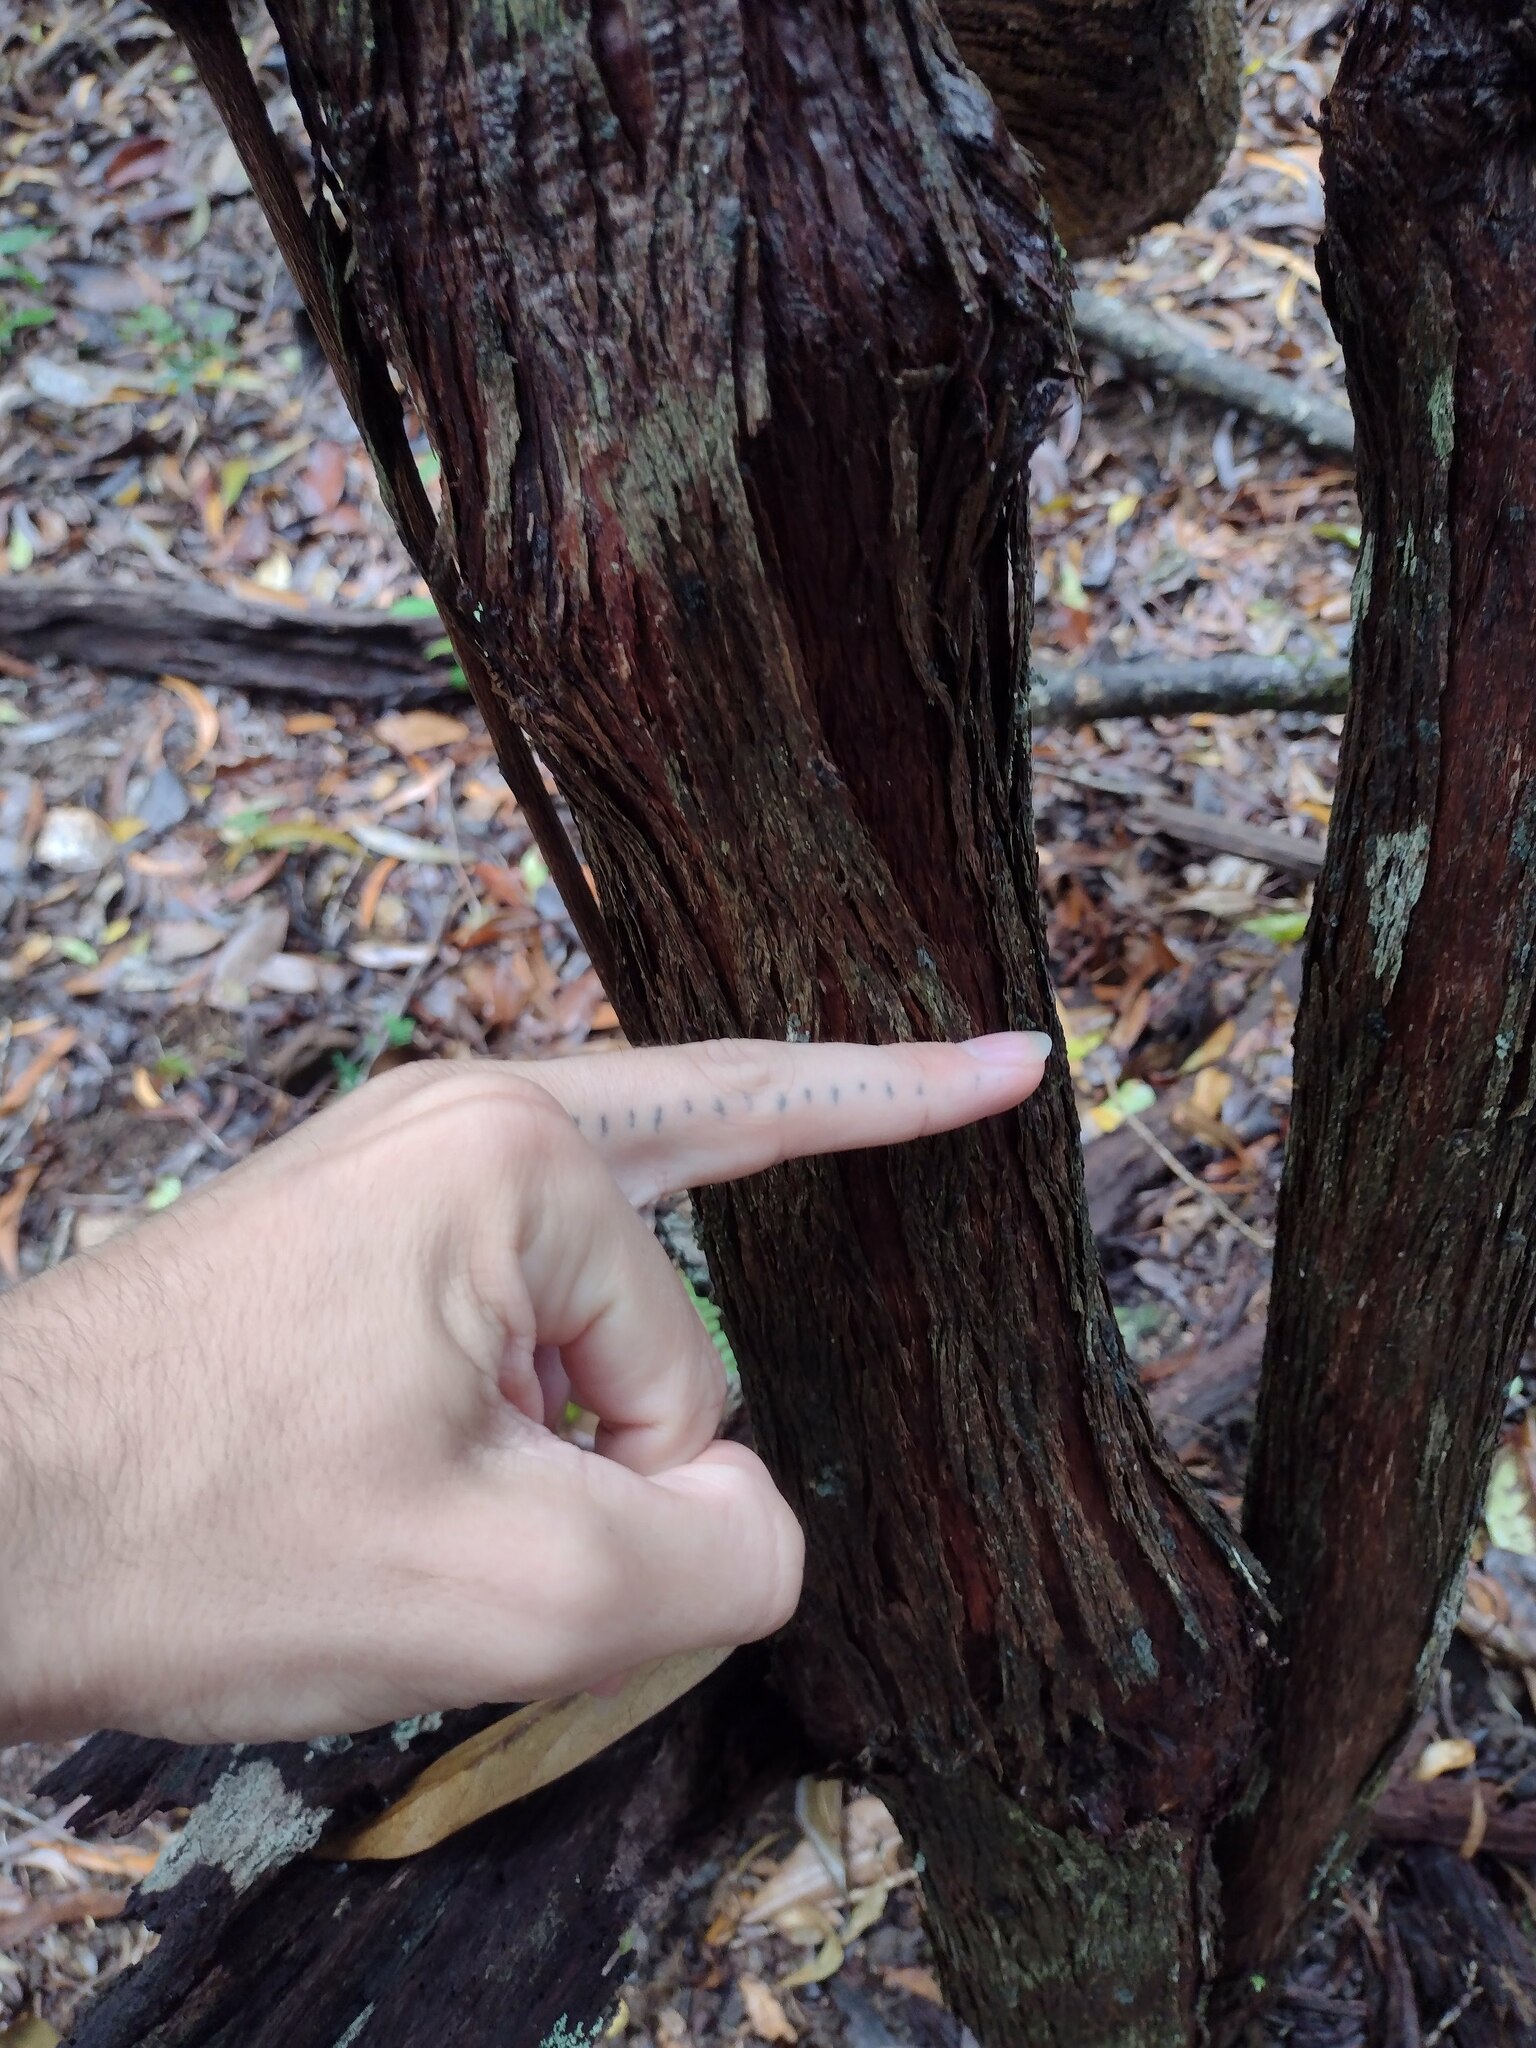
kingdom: Plantae
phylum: Tracheophyta
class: Magnoliopsida
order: Sapindales
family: Sapindaceae
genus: Dodonaea
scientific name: Dodonaea viscosa
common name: Hopbush
